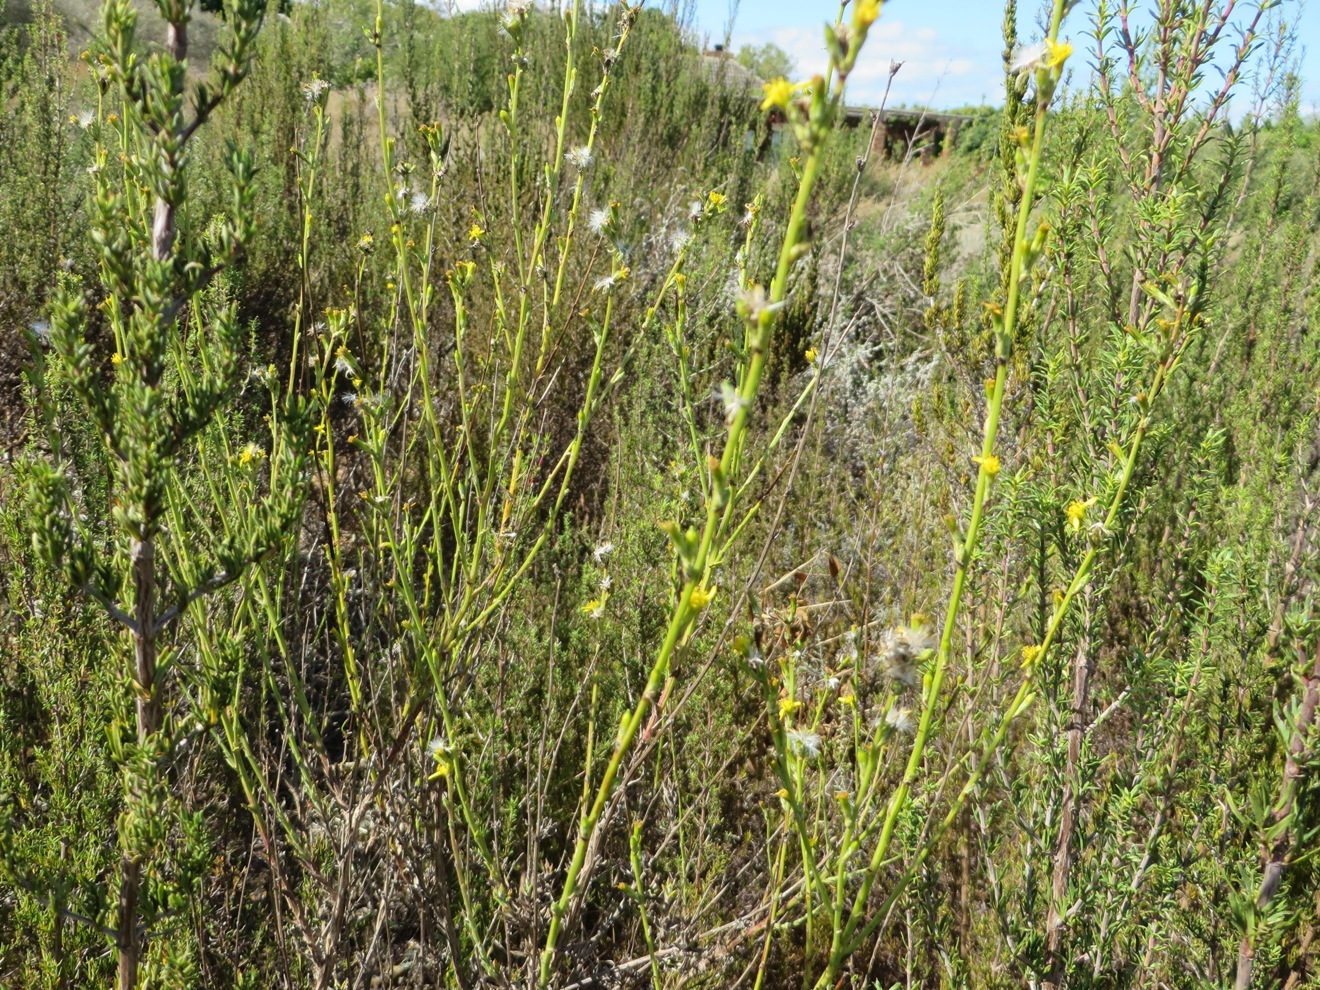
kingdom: Plantae
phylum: Tracheophyta
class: Magnoliopsida
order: Asterales
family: Asteraceae
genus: Senecio
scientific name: Senecio pubigerus
